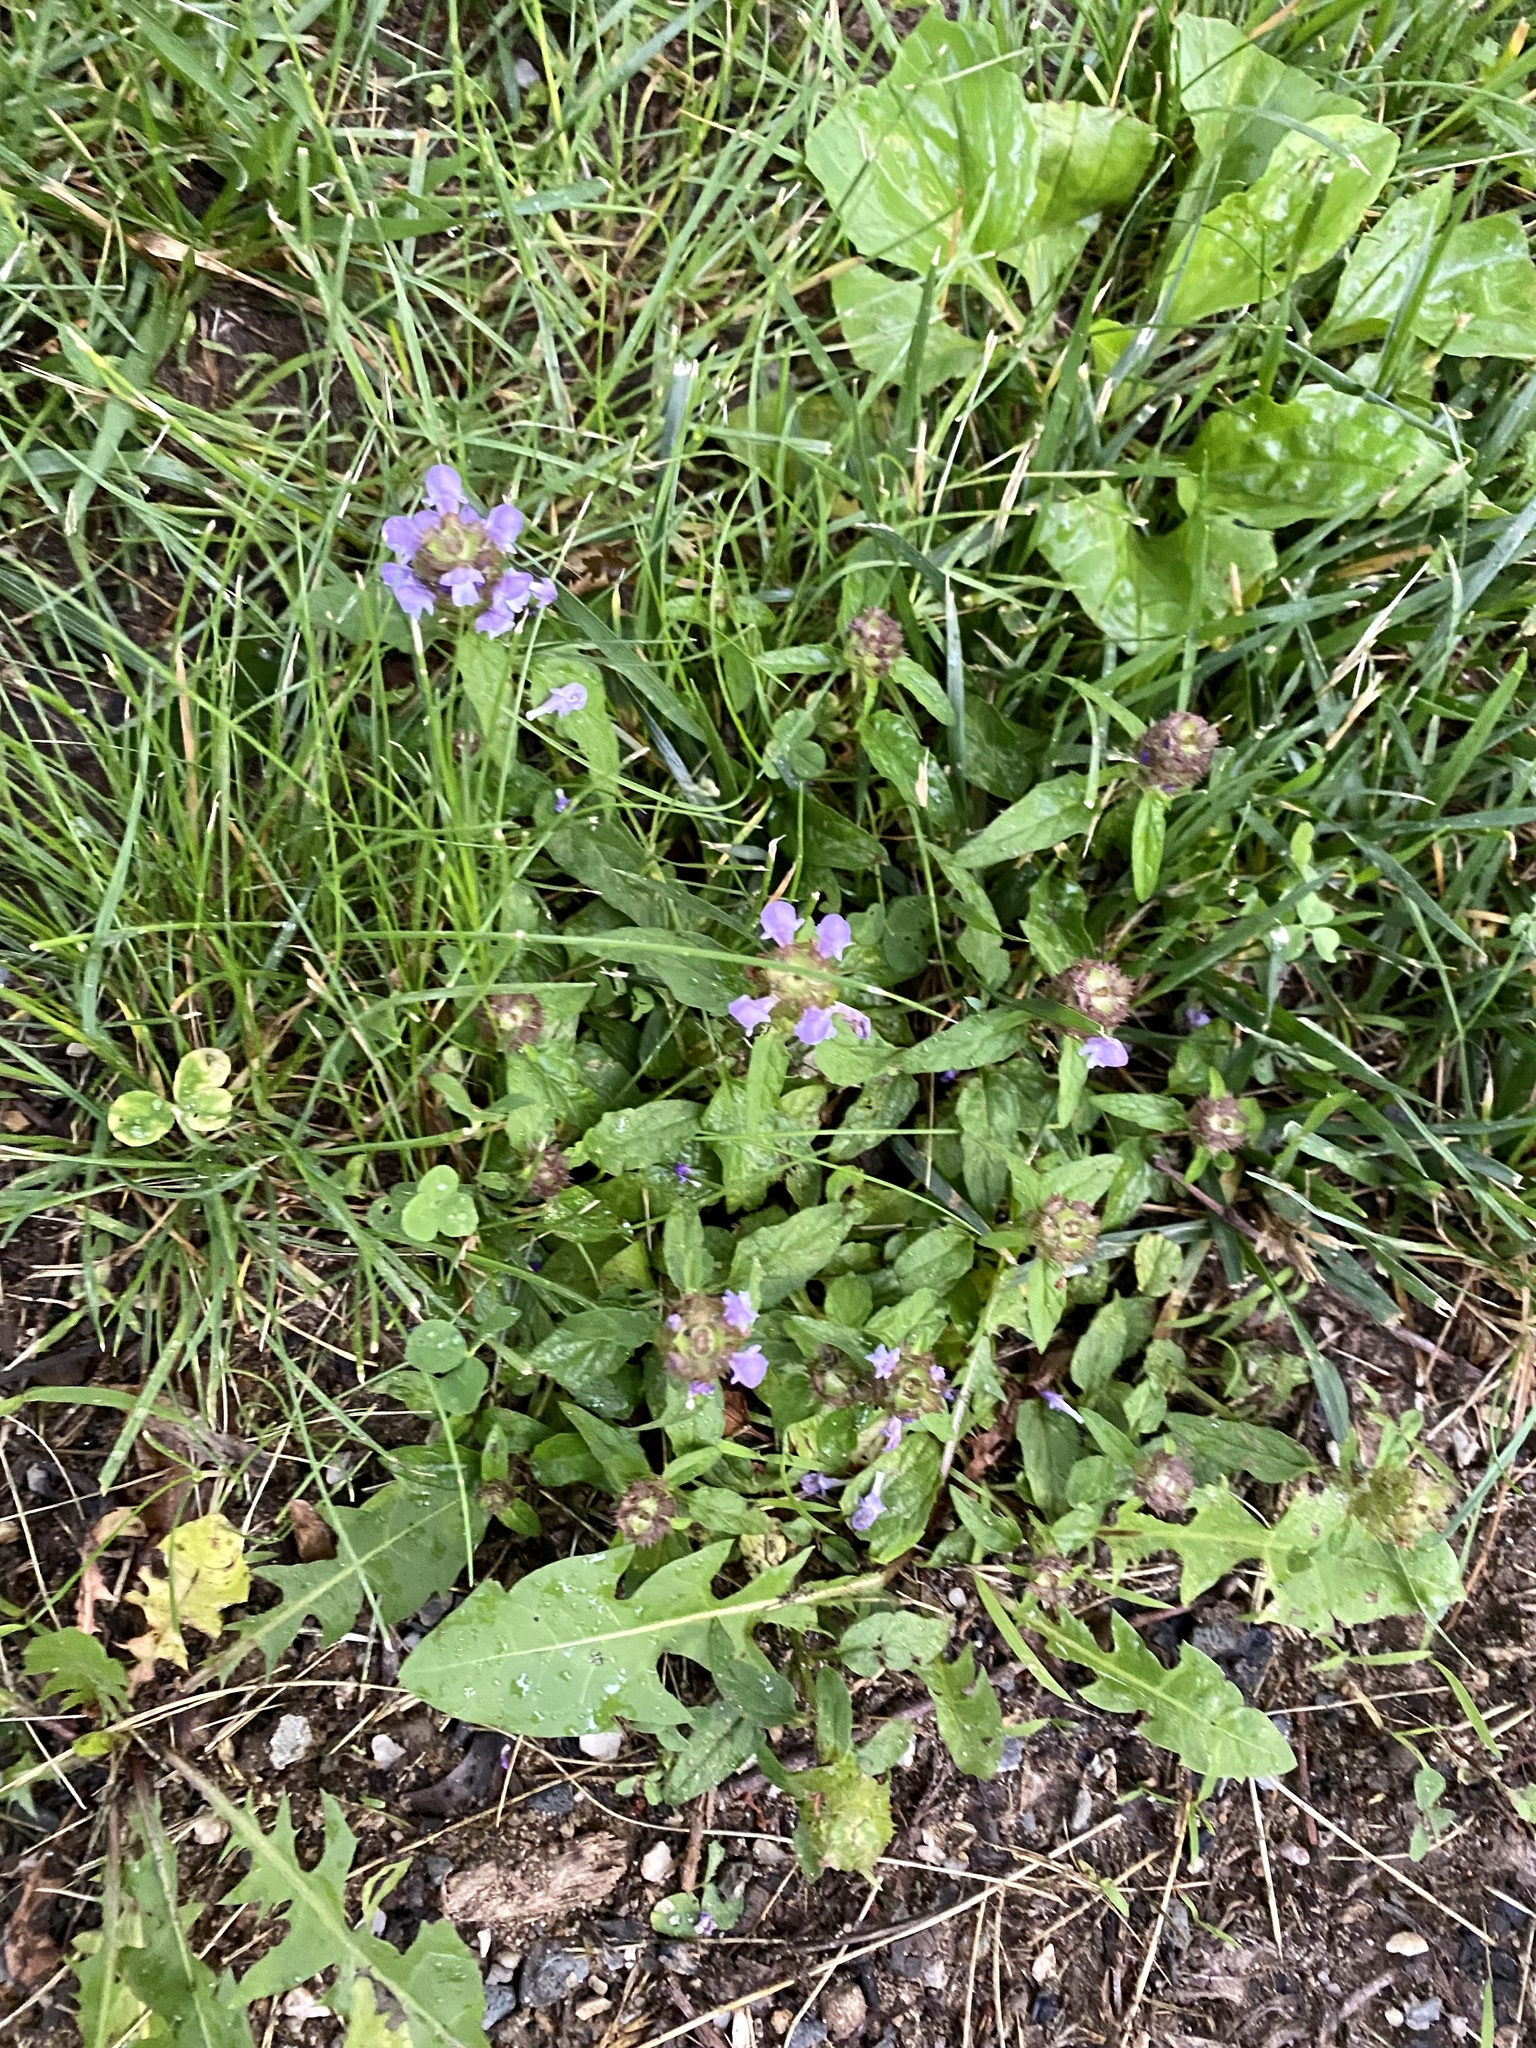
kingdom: Plantae
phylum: Tracheophyta
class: Magnoliopsida
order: Lamiales
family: Lamiaceae
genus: Prunella
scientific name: Prunella vulgaris
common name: Heal-all
